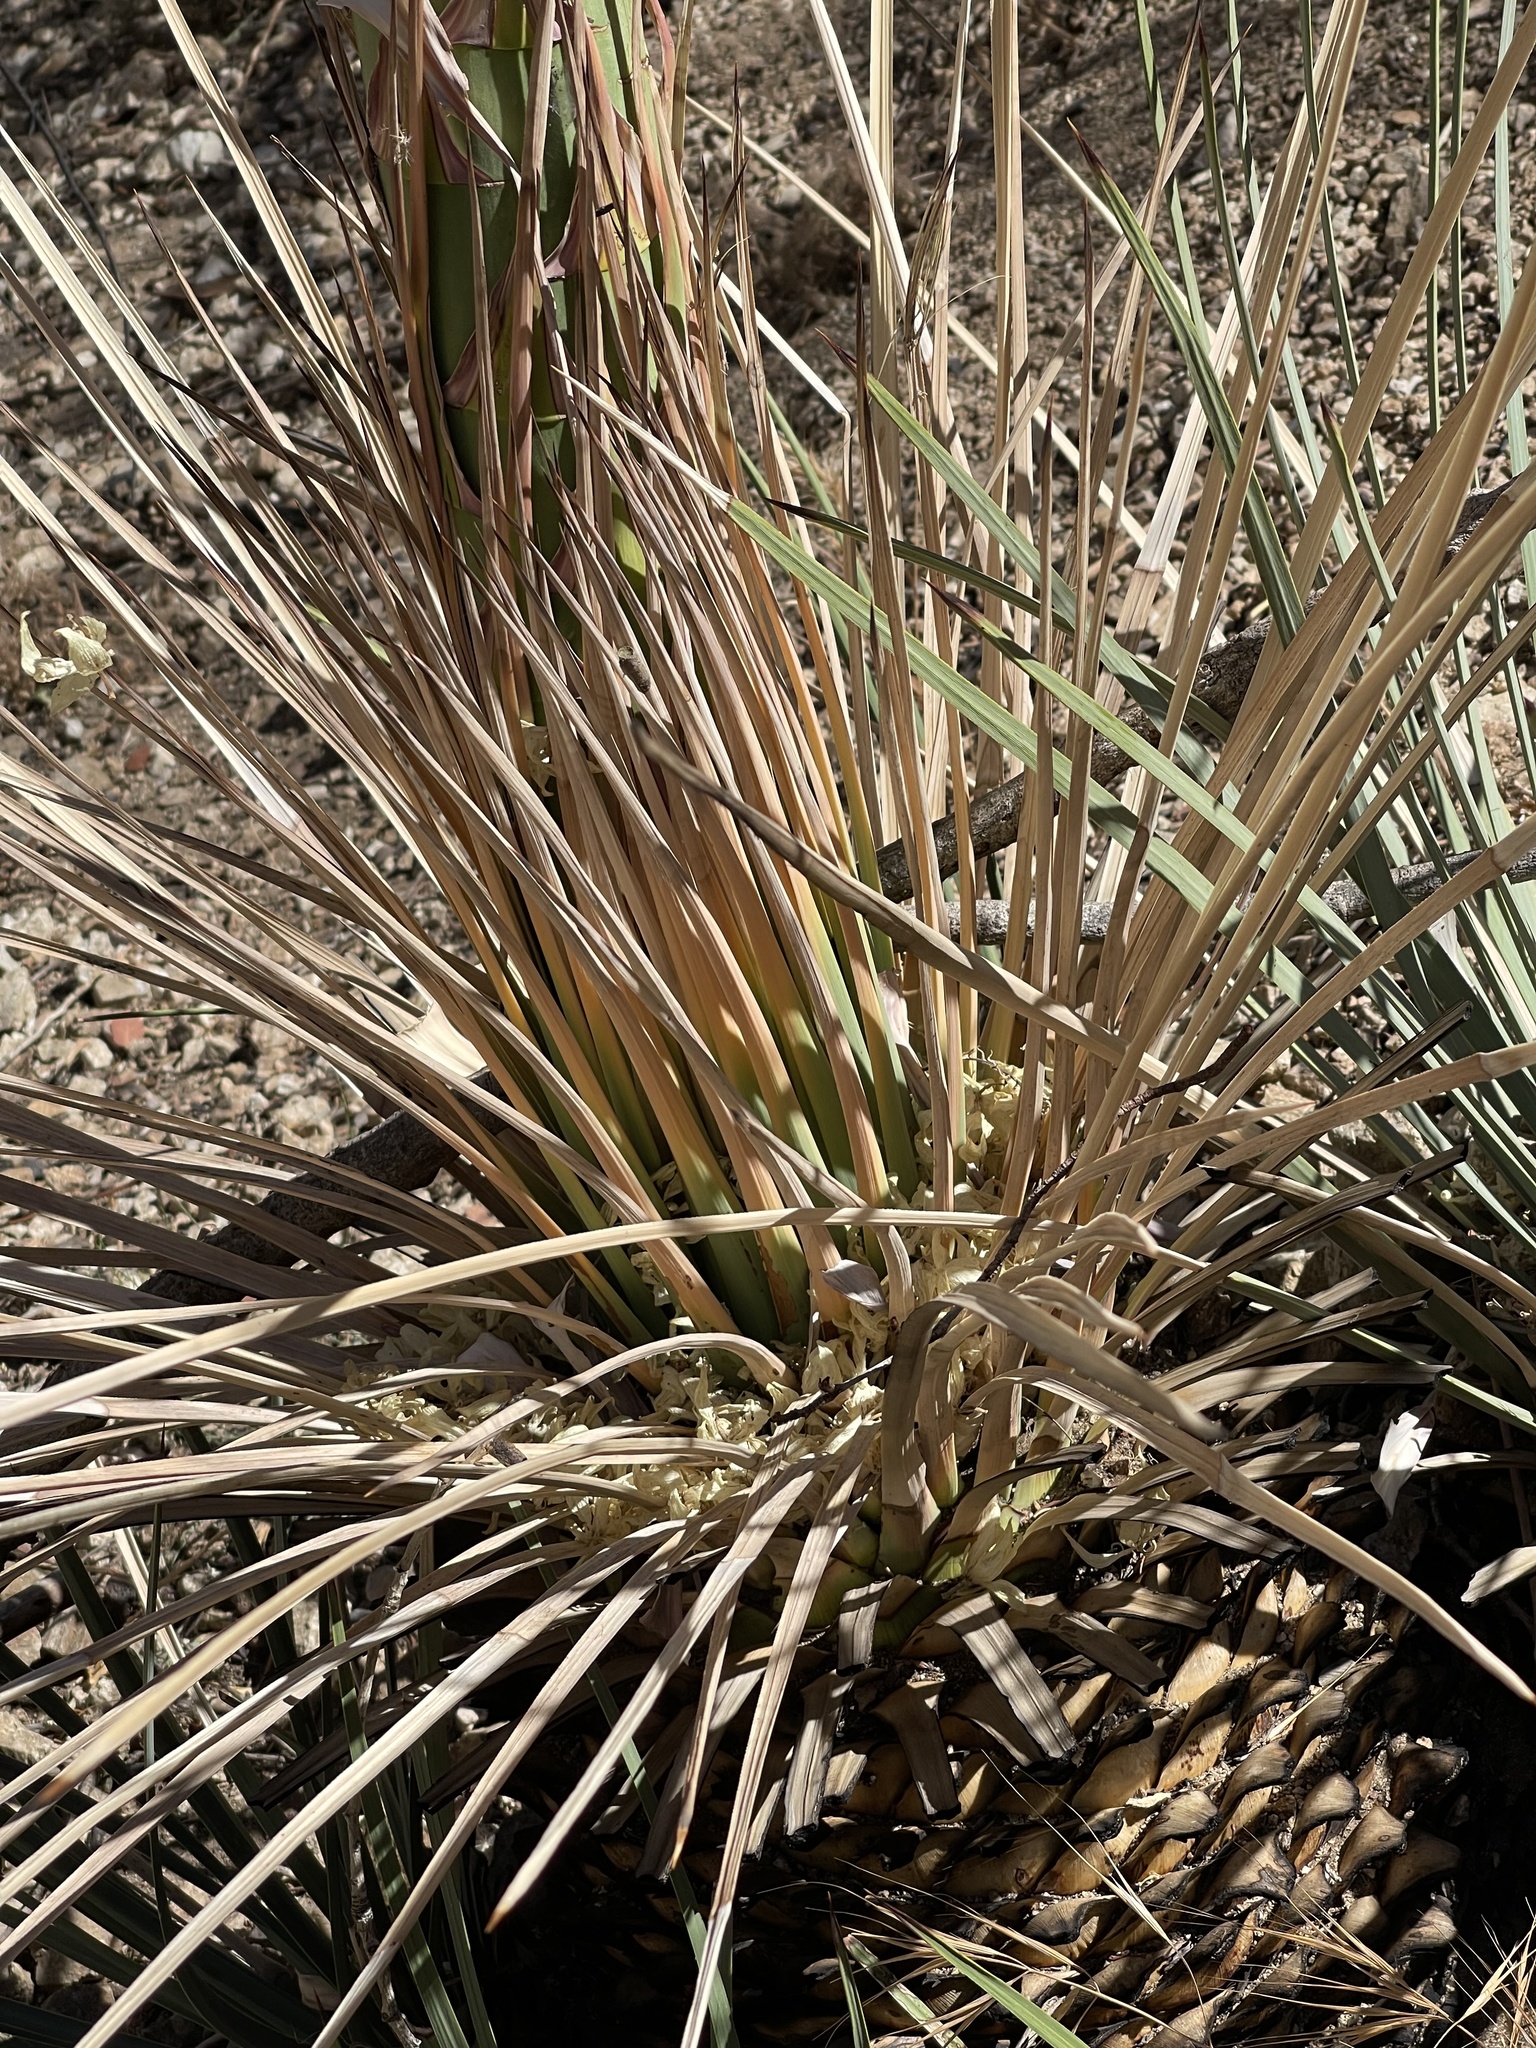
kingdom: Plantae
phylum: Tracheophyta
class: Liliopsida
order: Asparagales
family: Asparagaceae
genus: Hesperoyucca
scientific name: Hesperoyucca whipplei
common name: Our lord's-candle
